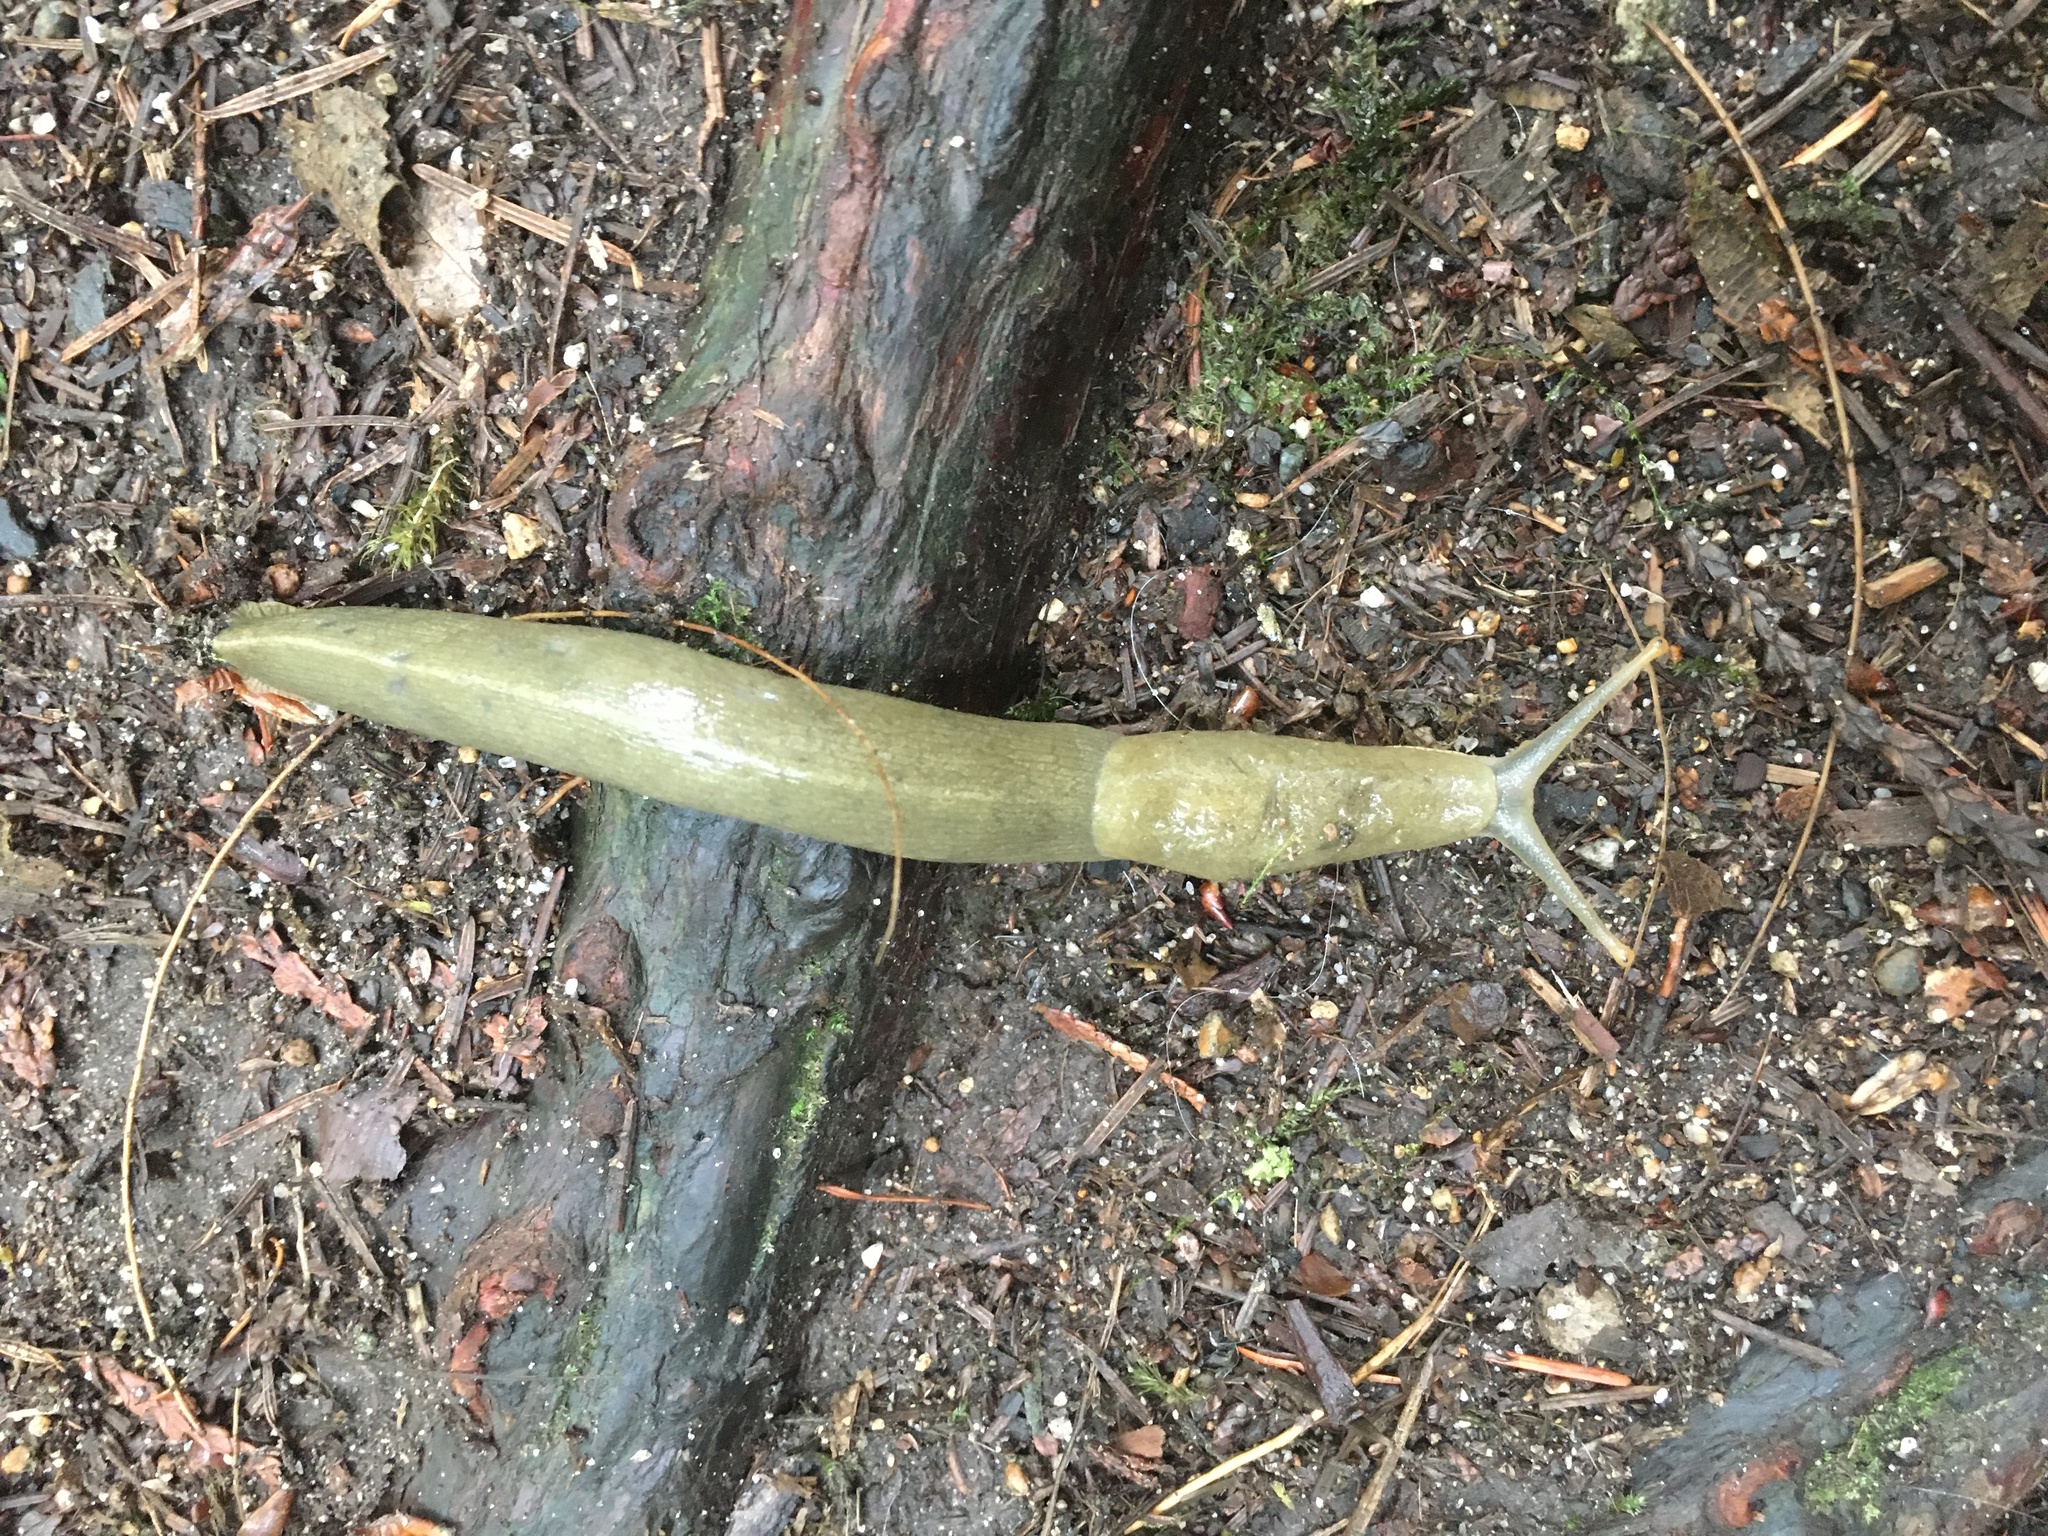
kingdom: Animalia
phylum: Mollusca
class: Gastropoda
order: Stylommatophora
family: Ariolimacidae
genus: Ariolimax
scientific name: Ariolimax columbianus
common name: Pacific banana slug
